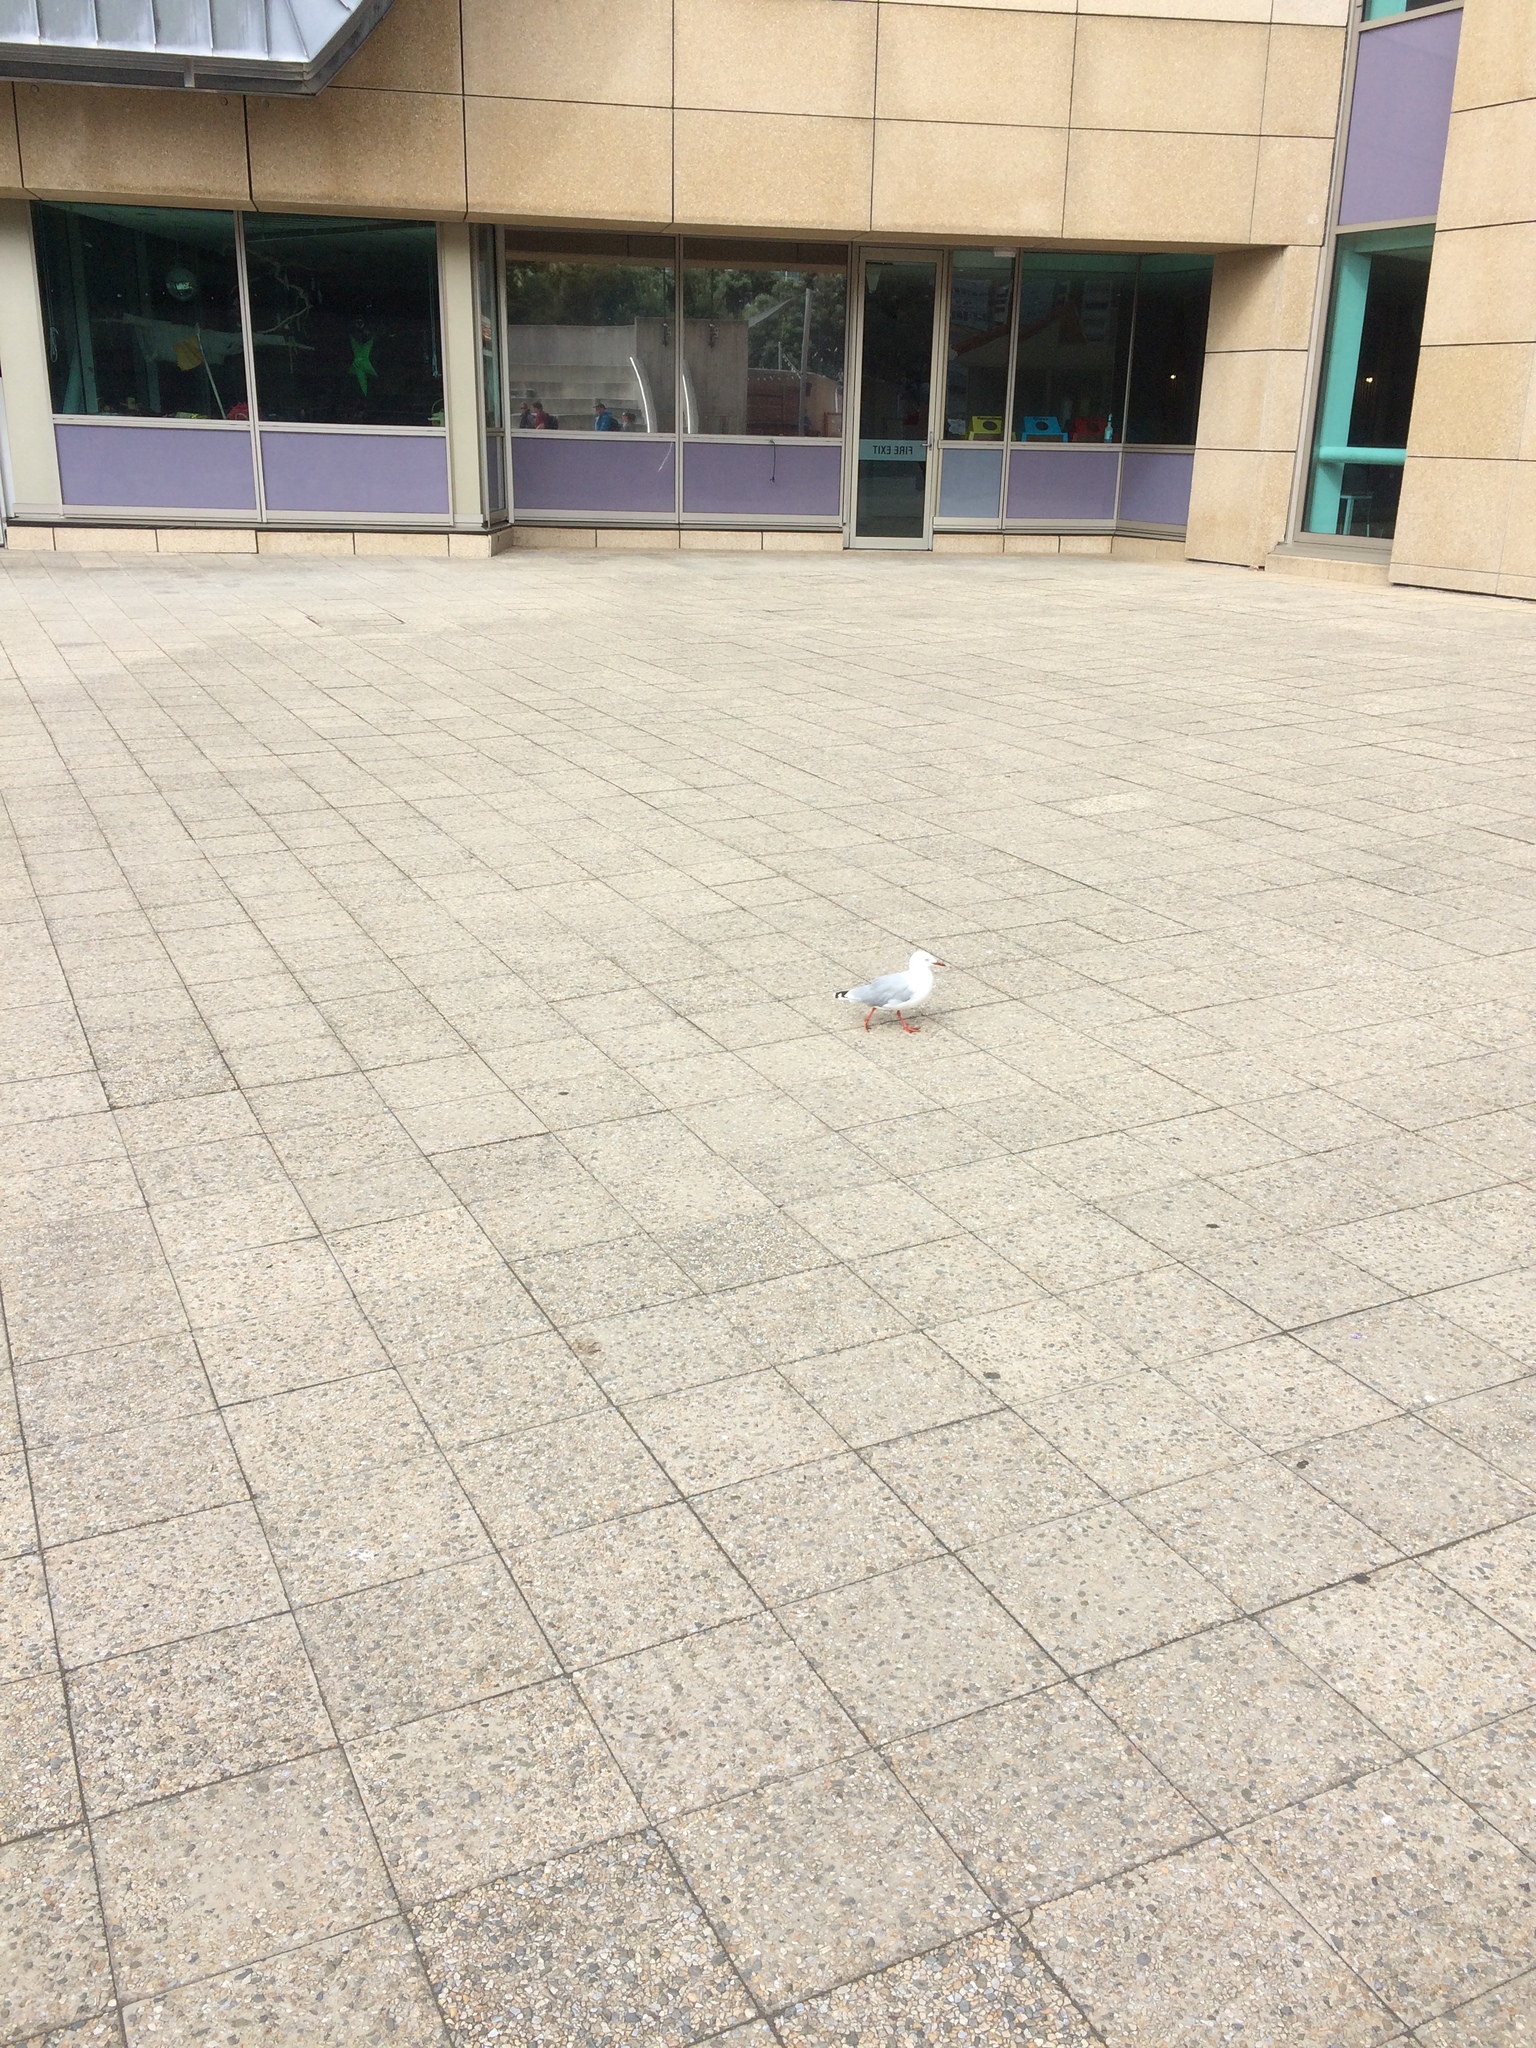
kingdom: Animalia
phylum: Chordata
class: Aves
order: Charadriiformes
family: Laridae
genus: Chroicocephalus
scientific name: Chroicocephalus novaehollandiae
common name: Silver gull
